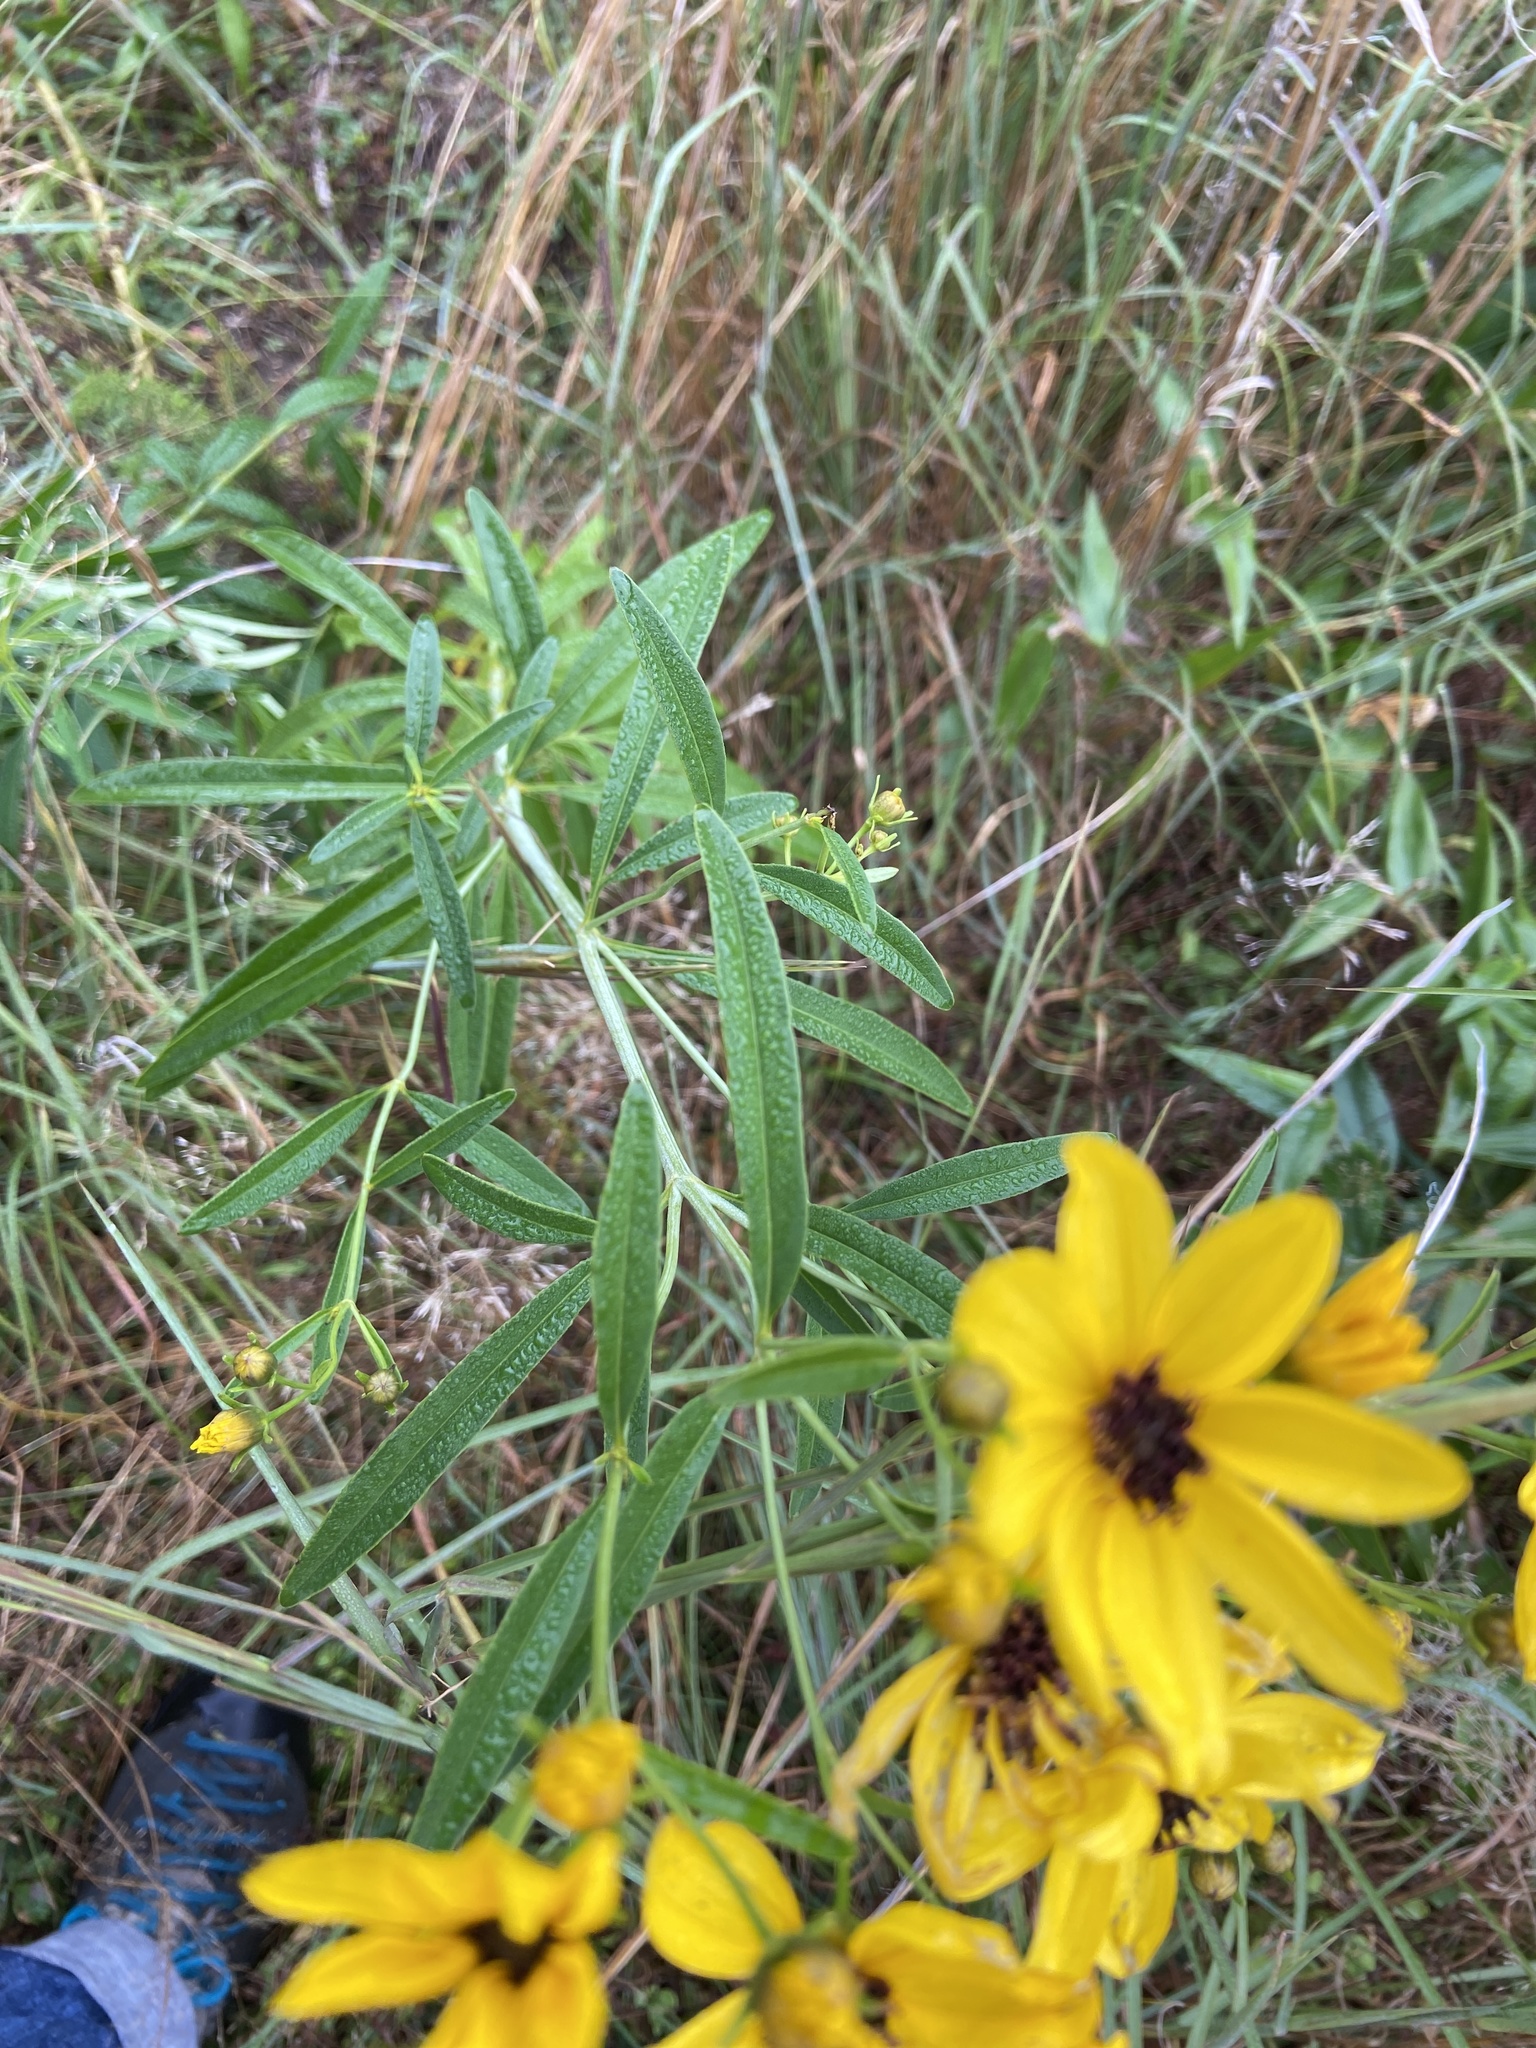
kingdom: Plantae
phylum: Tracheophyta
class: Magnoliopsida
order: Asterales
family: Asteraceae
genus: Coreopsis
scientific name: Coreopsis tripteris
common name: Tall coreopsis
